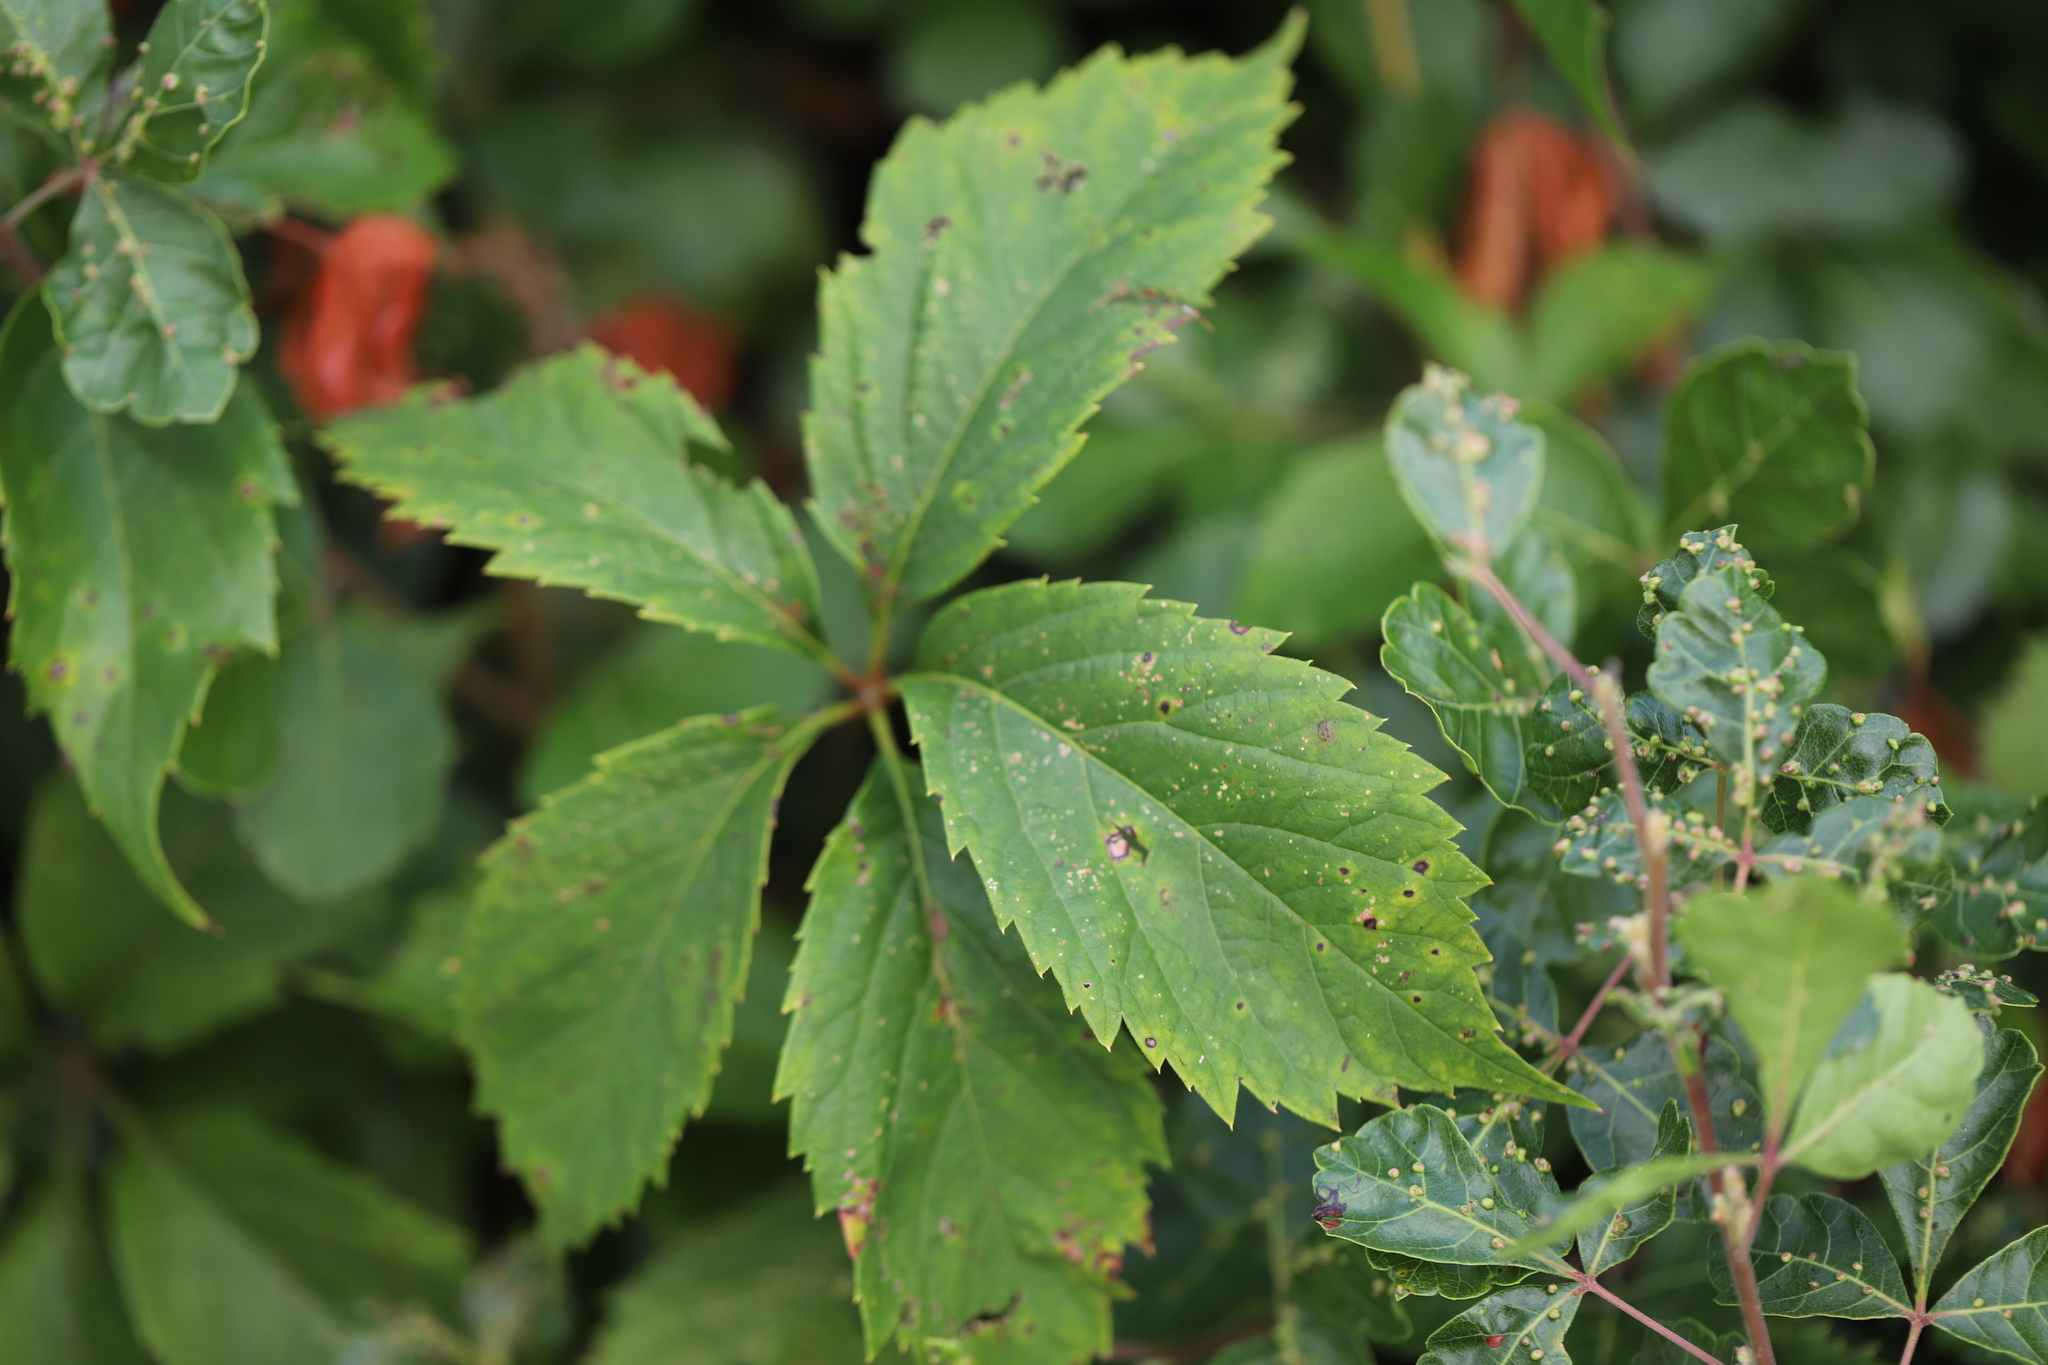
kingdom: Plantae
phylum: Tracheophyta
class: Magnoliopsida
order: Vitales
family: Vitaceae
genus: Parthenocissus
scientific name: Parthenocissus inserta
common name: False virginia-creeper
